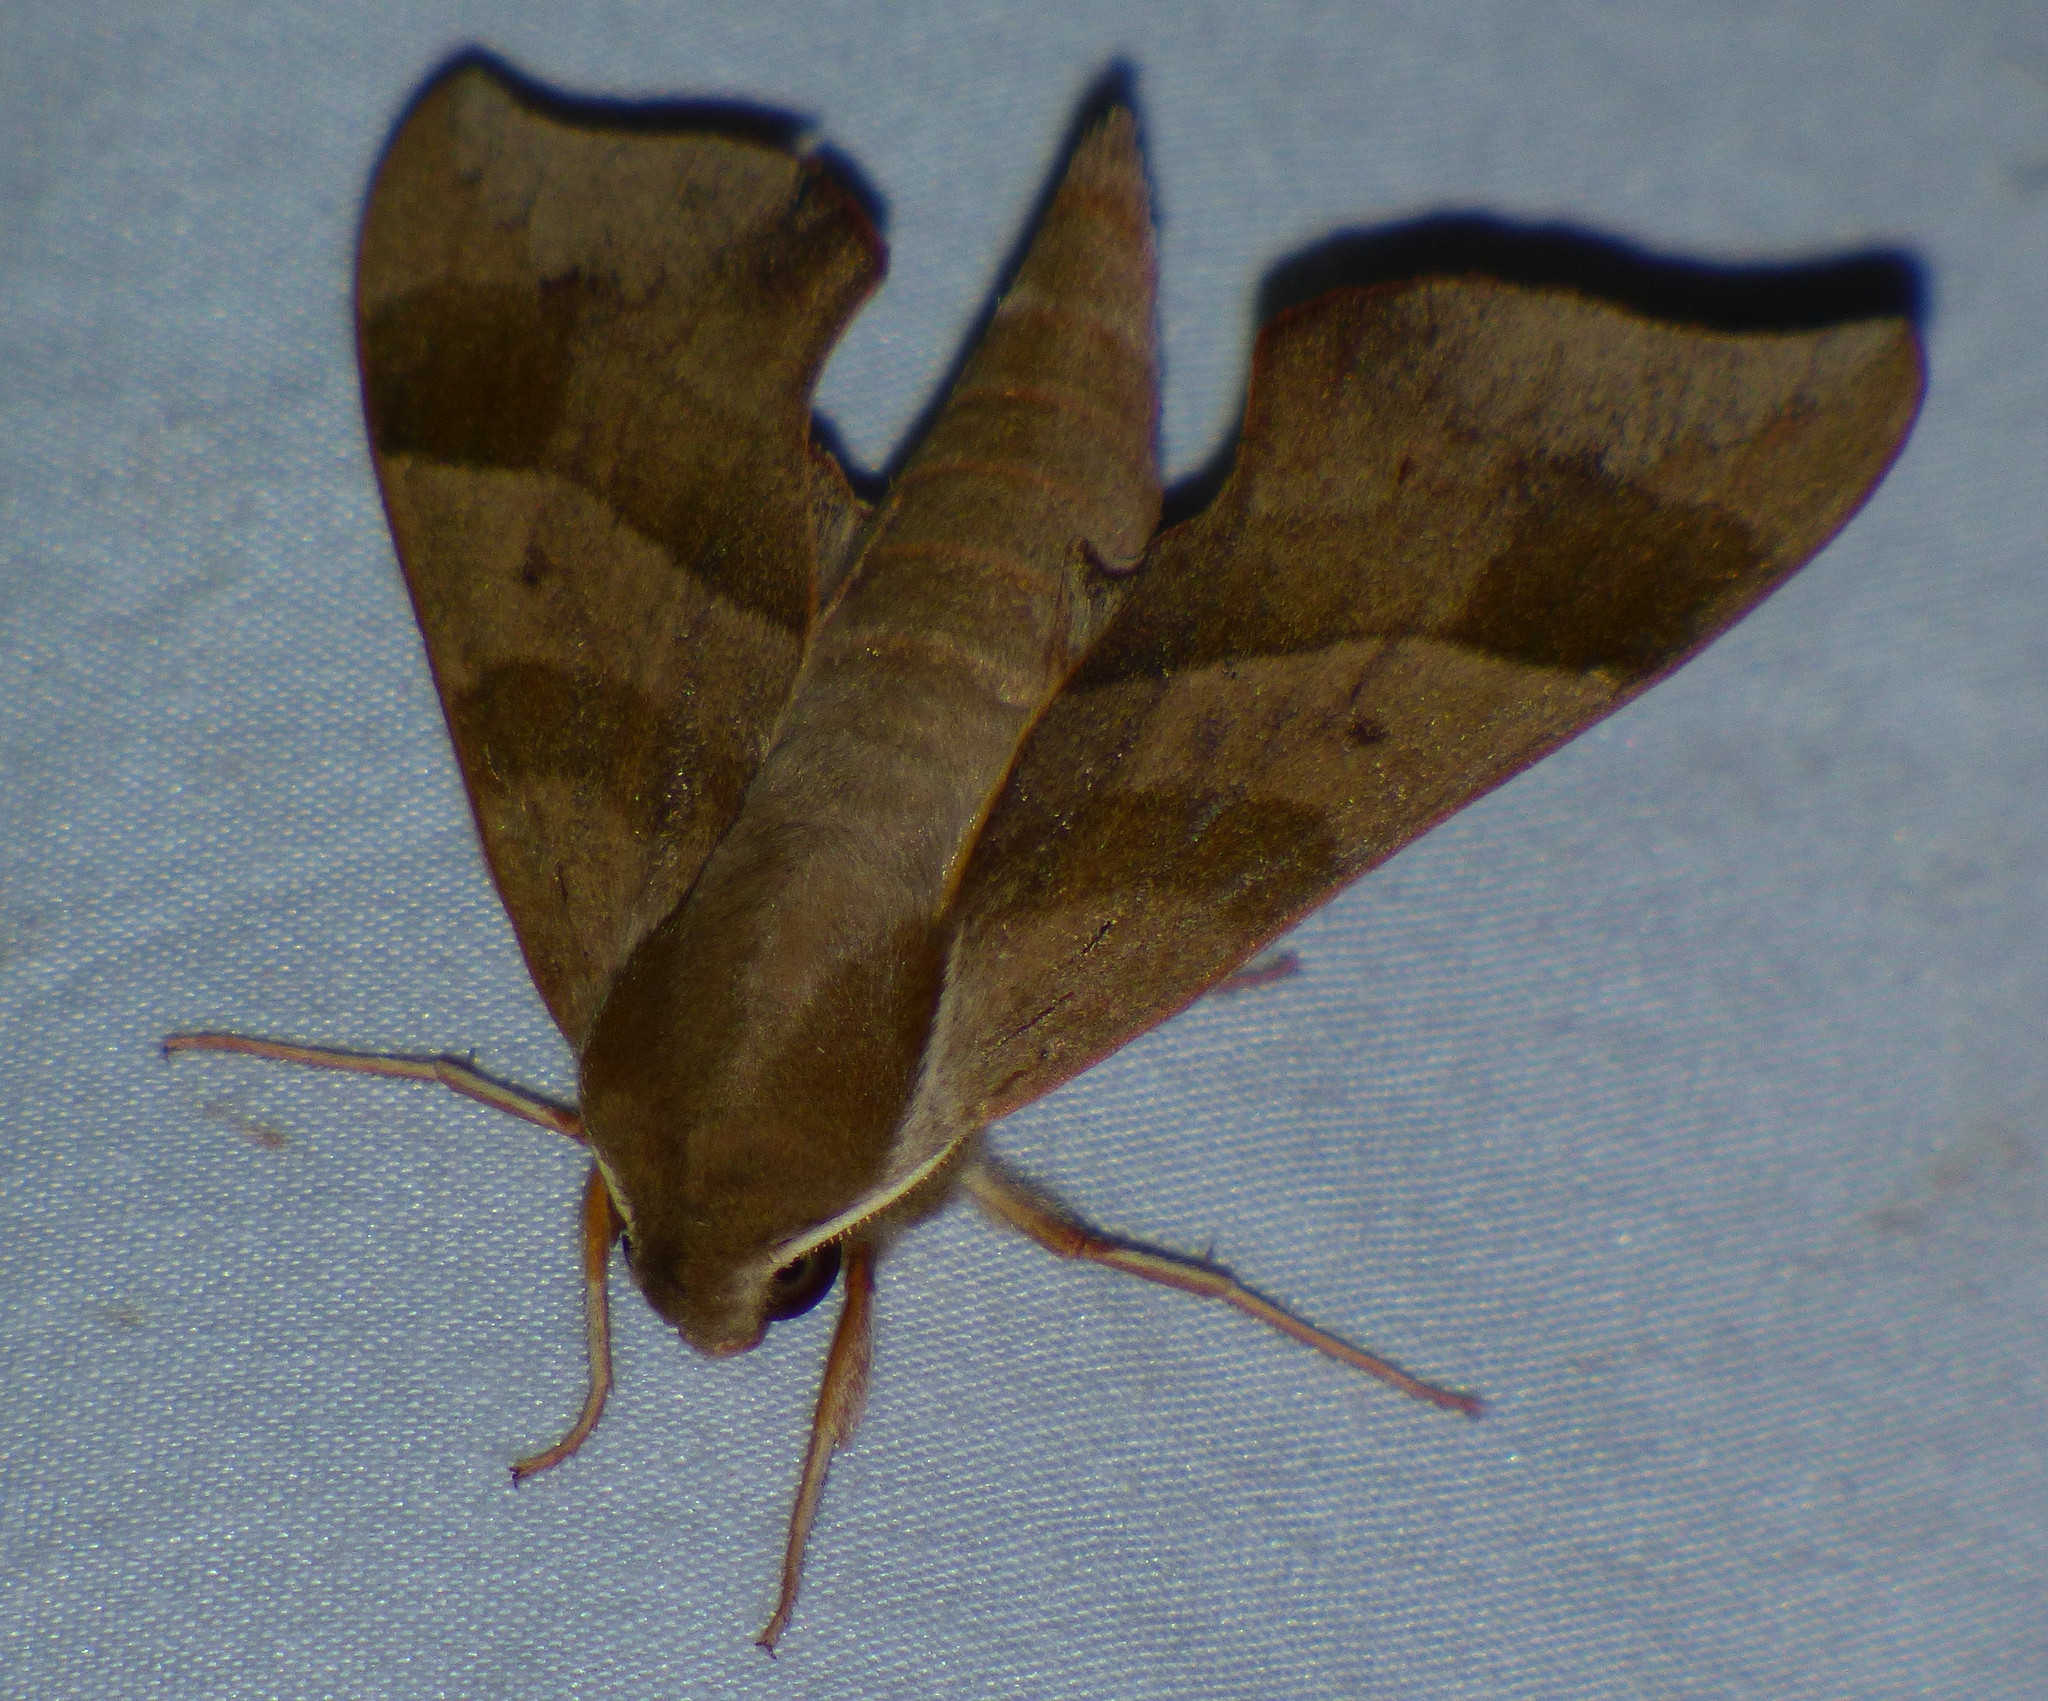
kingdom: Animalia
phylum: Arthropoda
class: Insecta
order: Lepidoptera
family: Sphingidae
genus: Darapsa
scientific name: Darapsa myron
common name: Hog sphinx
